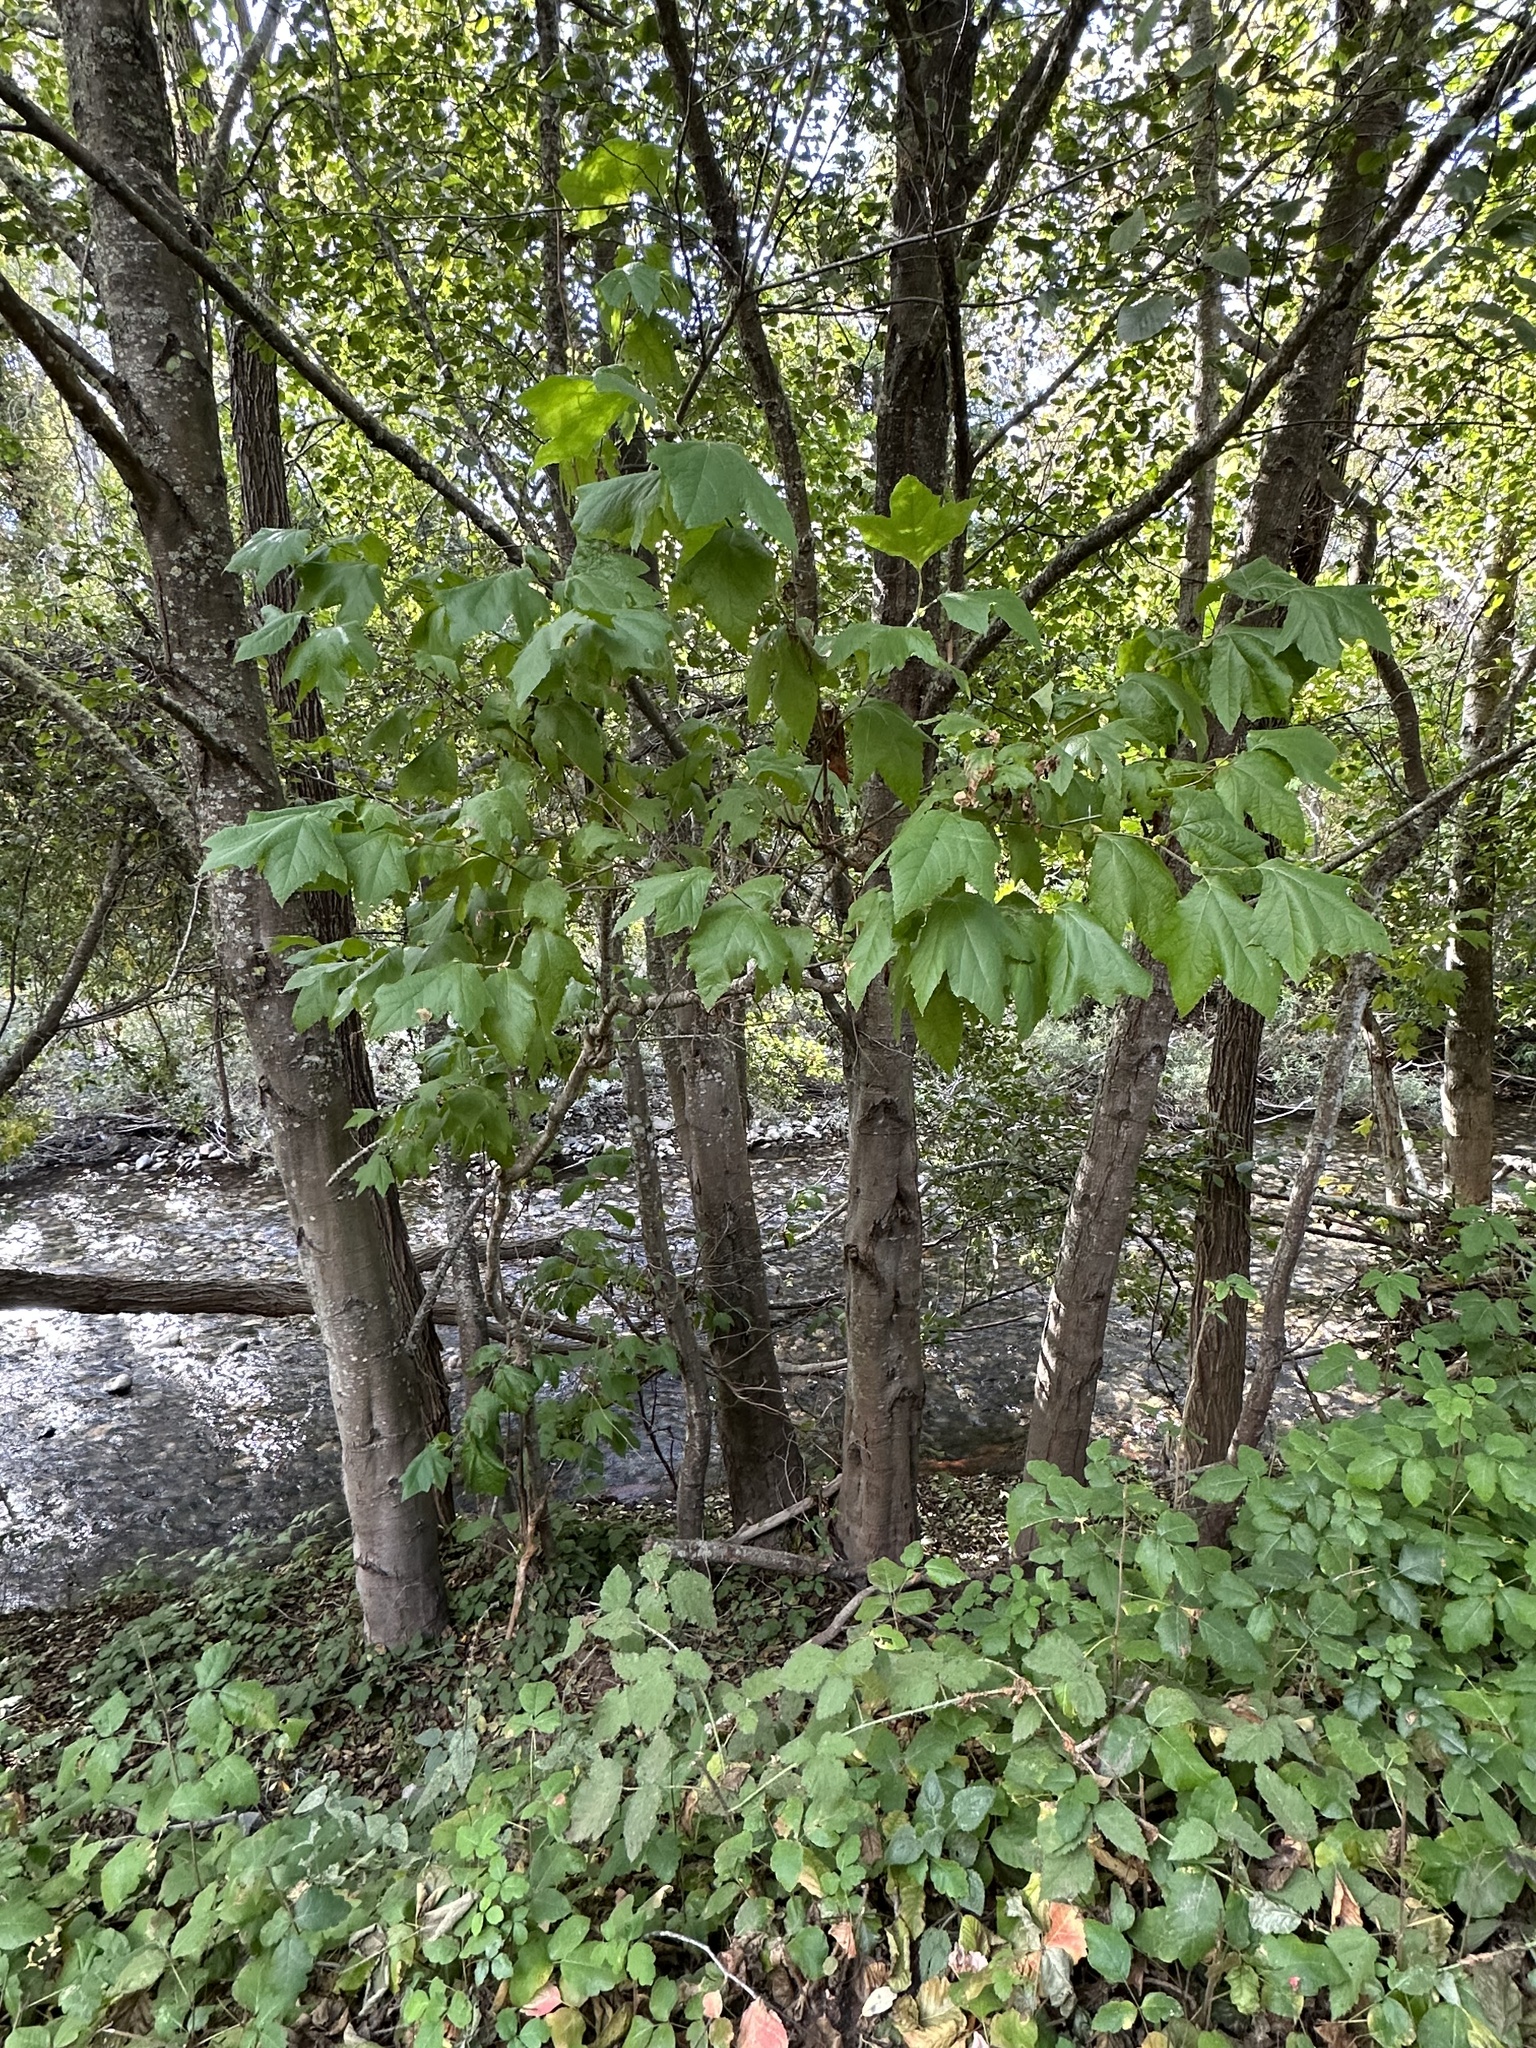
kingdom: Plantae
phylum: Tracheophyta
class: Magnoliopsida
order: Proteales
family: Platanaceae
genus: Platanus
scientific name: Platanus racemosa
